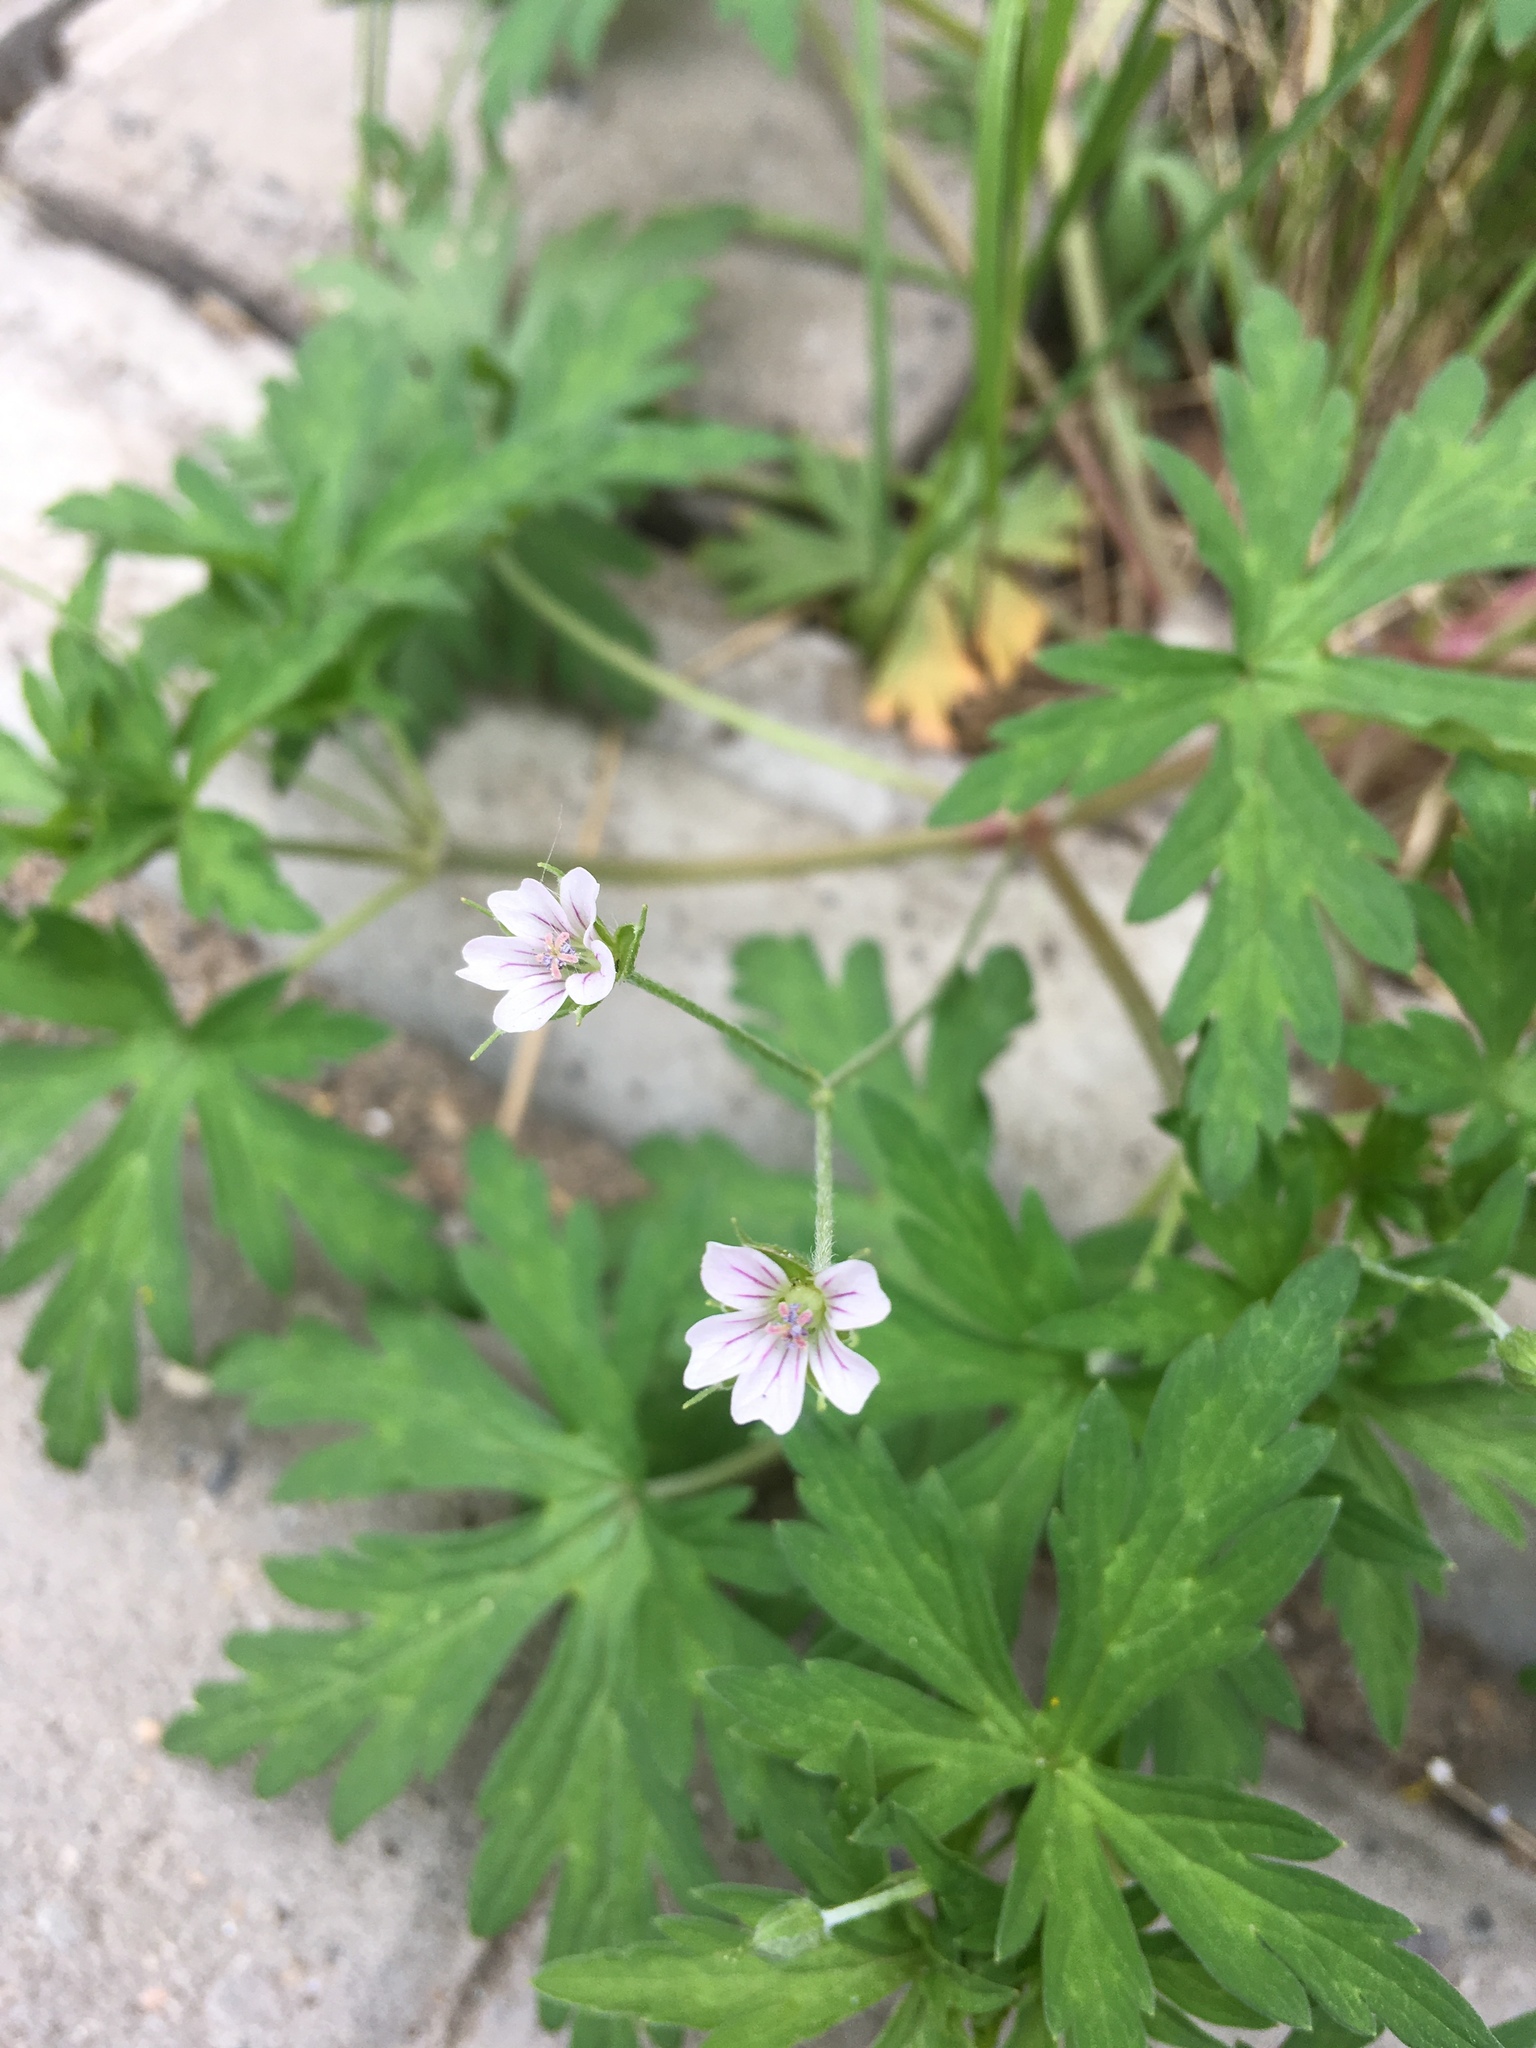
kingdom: Plantae
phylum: Tracheophyta
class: Magnoliopsida
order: Geraniales
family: Geraniaceae
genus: Geranium
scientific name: Geranium sibiricum
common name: Siberian crane's-bill
